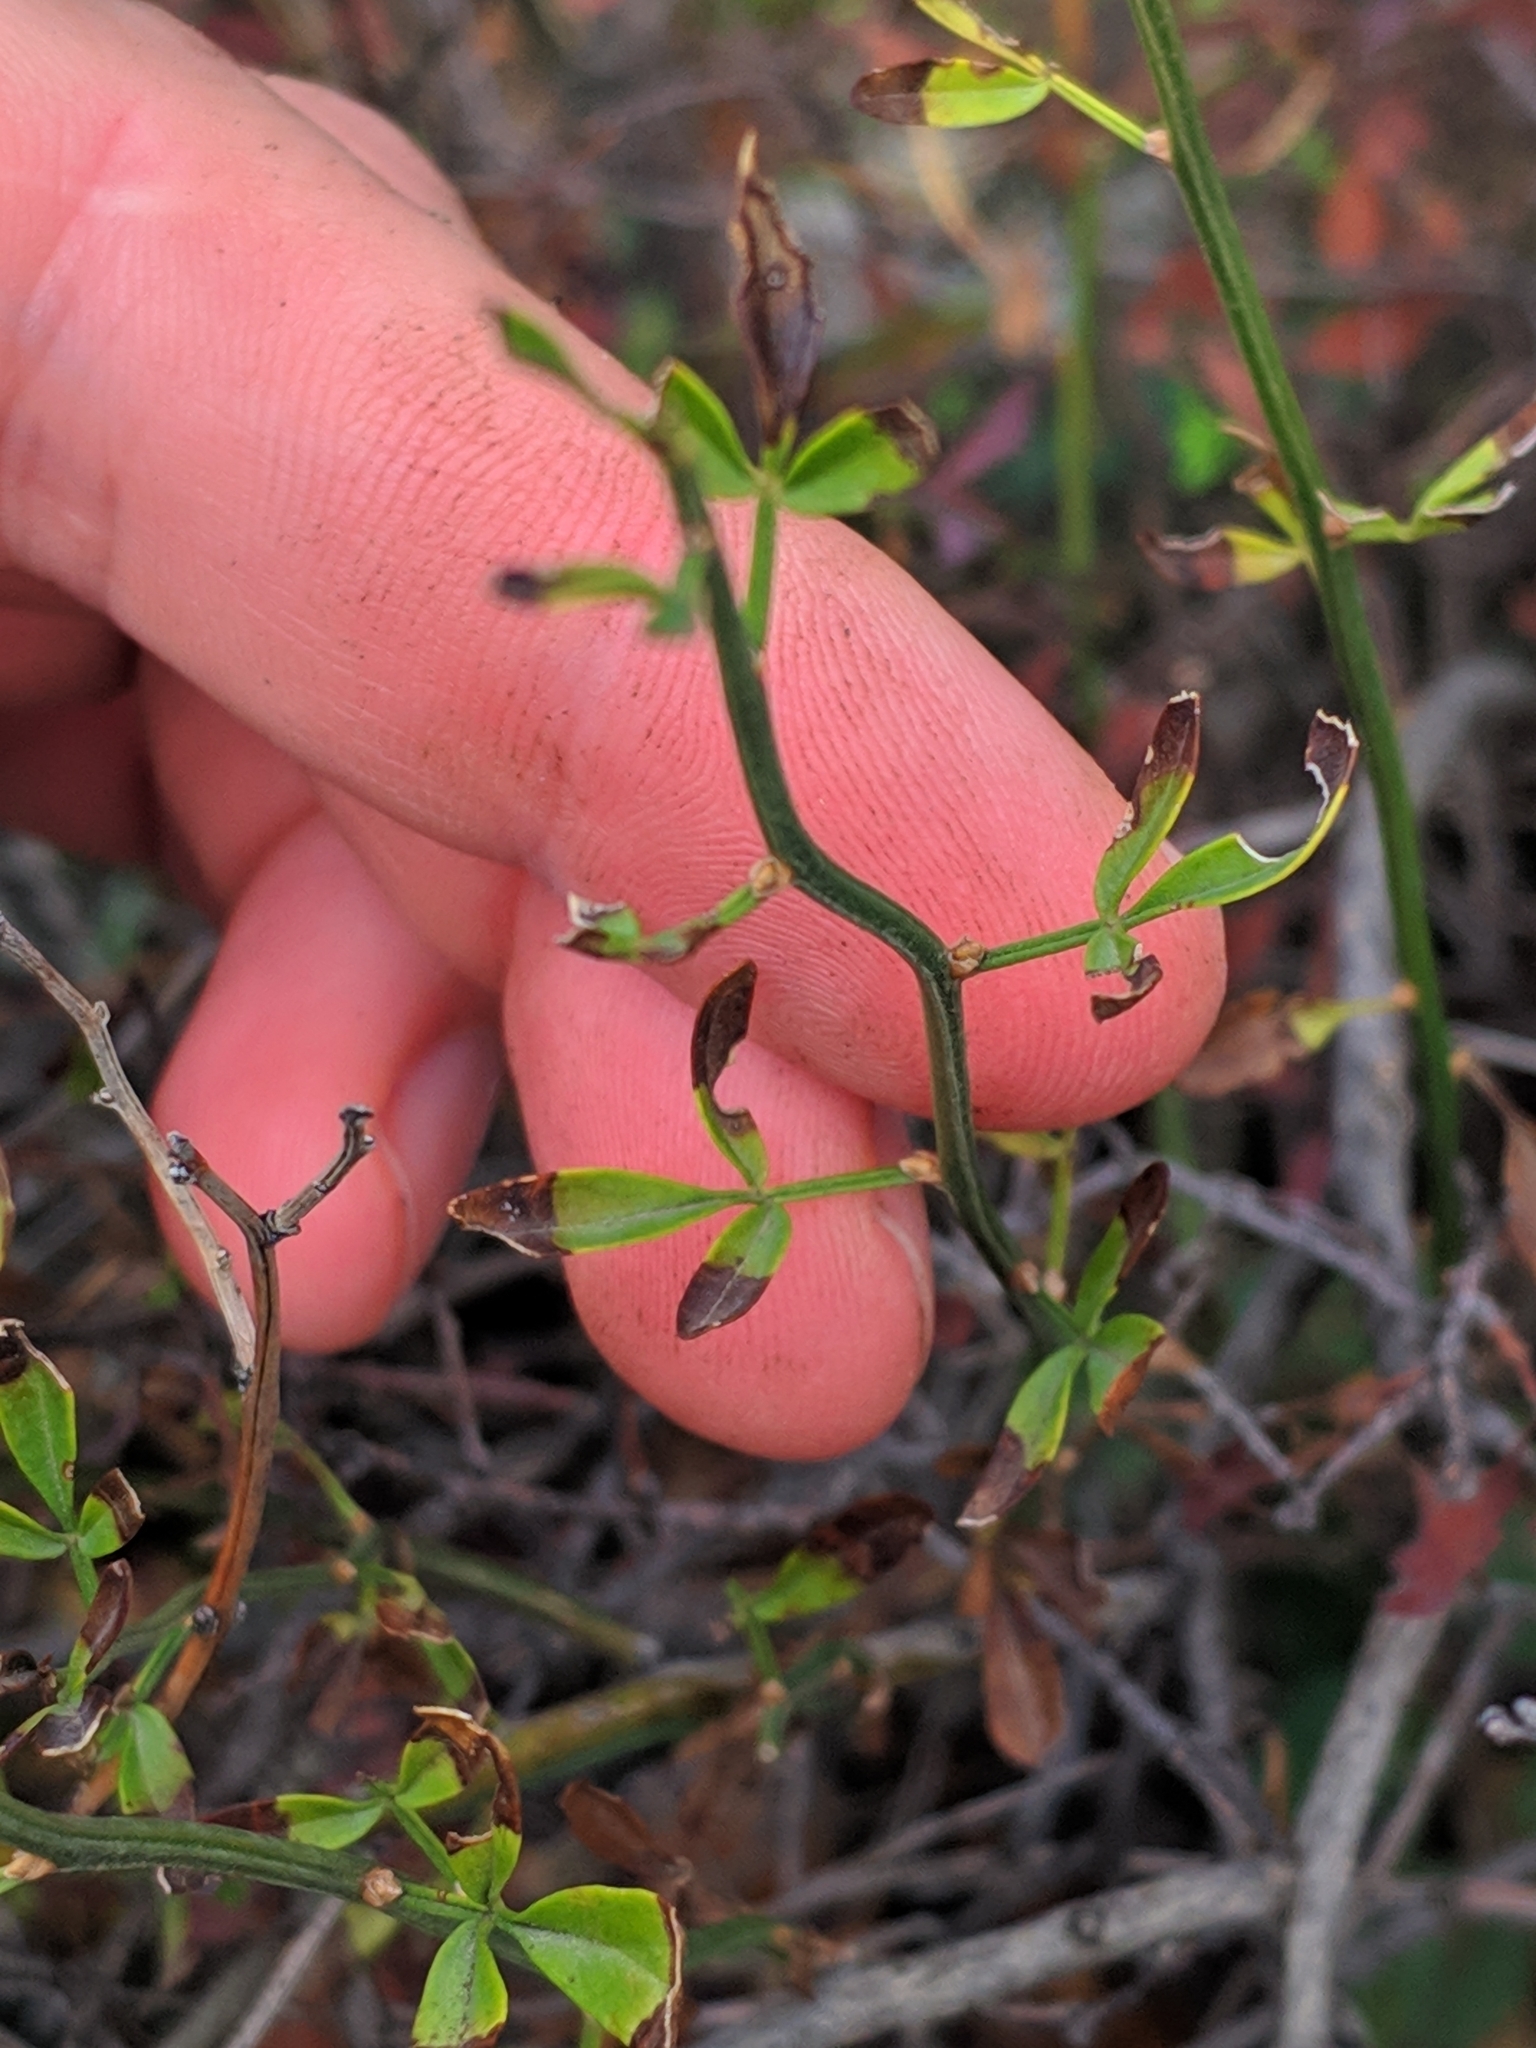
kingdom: Plantae
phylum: Tracheophyta
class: Magnoliopsida
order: Lamiales
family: Oleaceae
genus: Chrysojasminum
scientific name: Chrysojasminum fruticans
